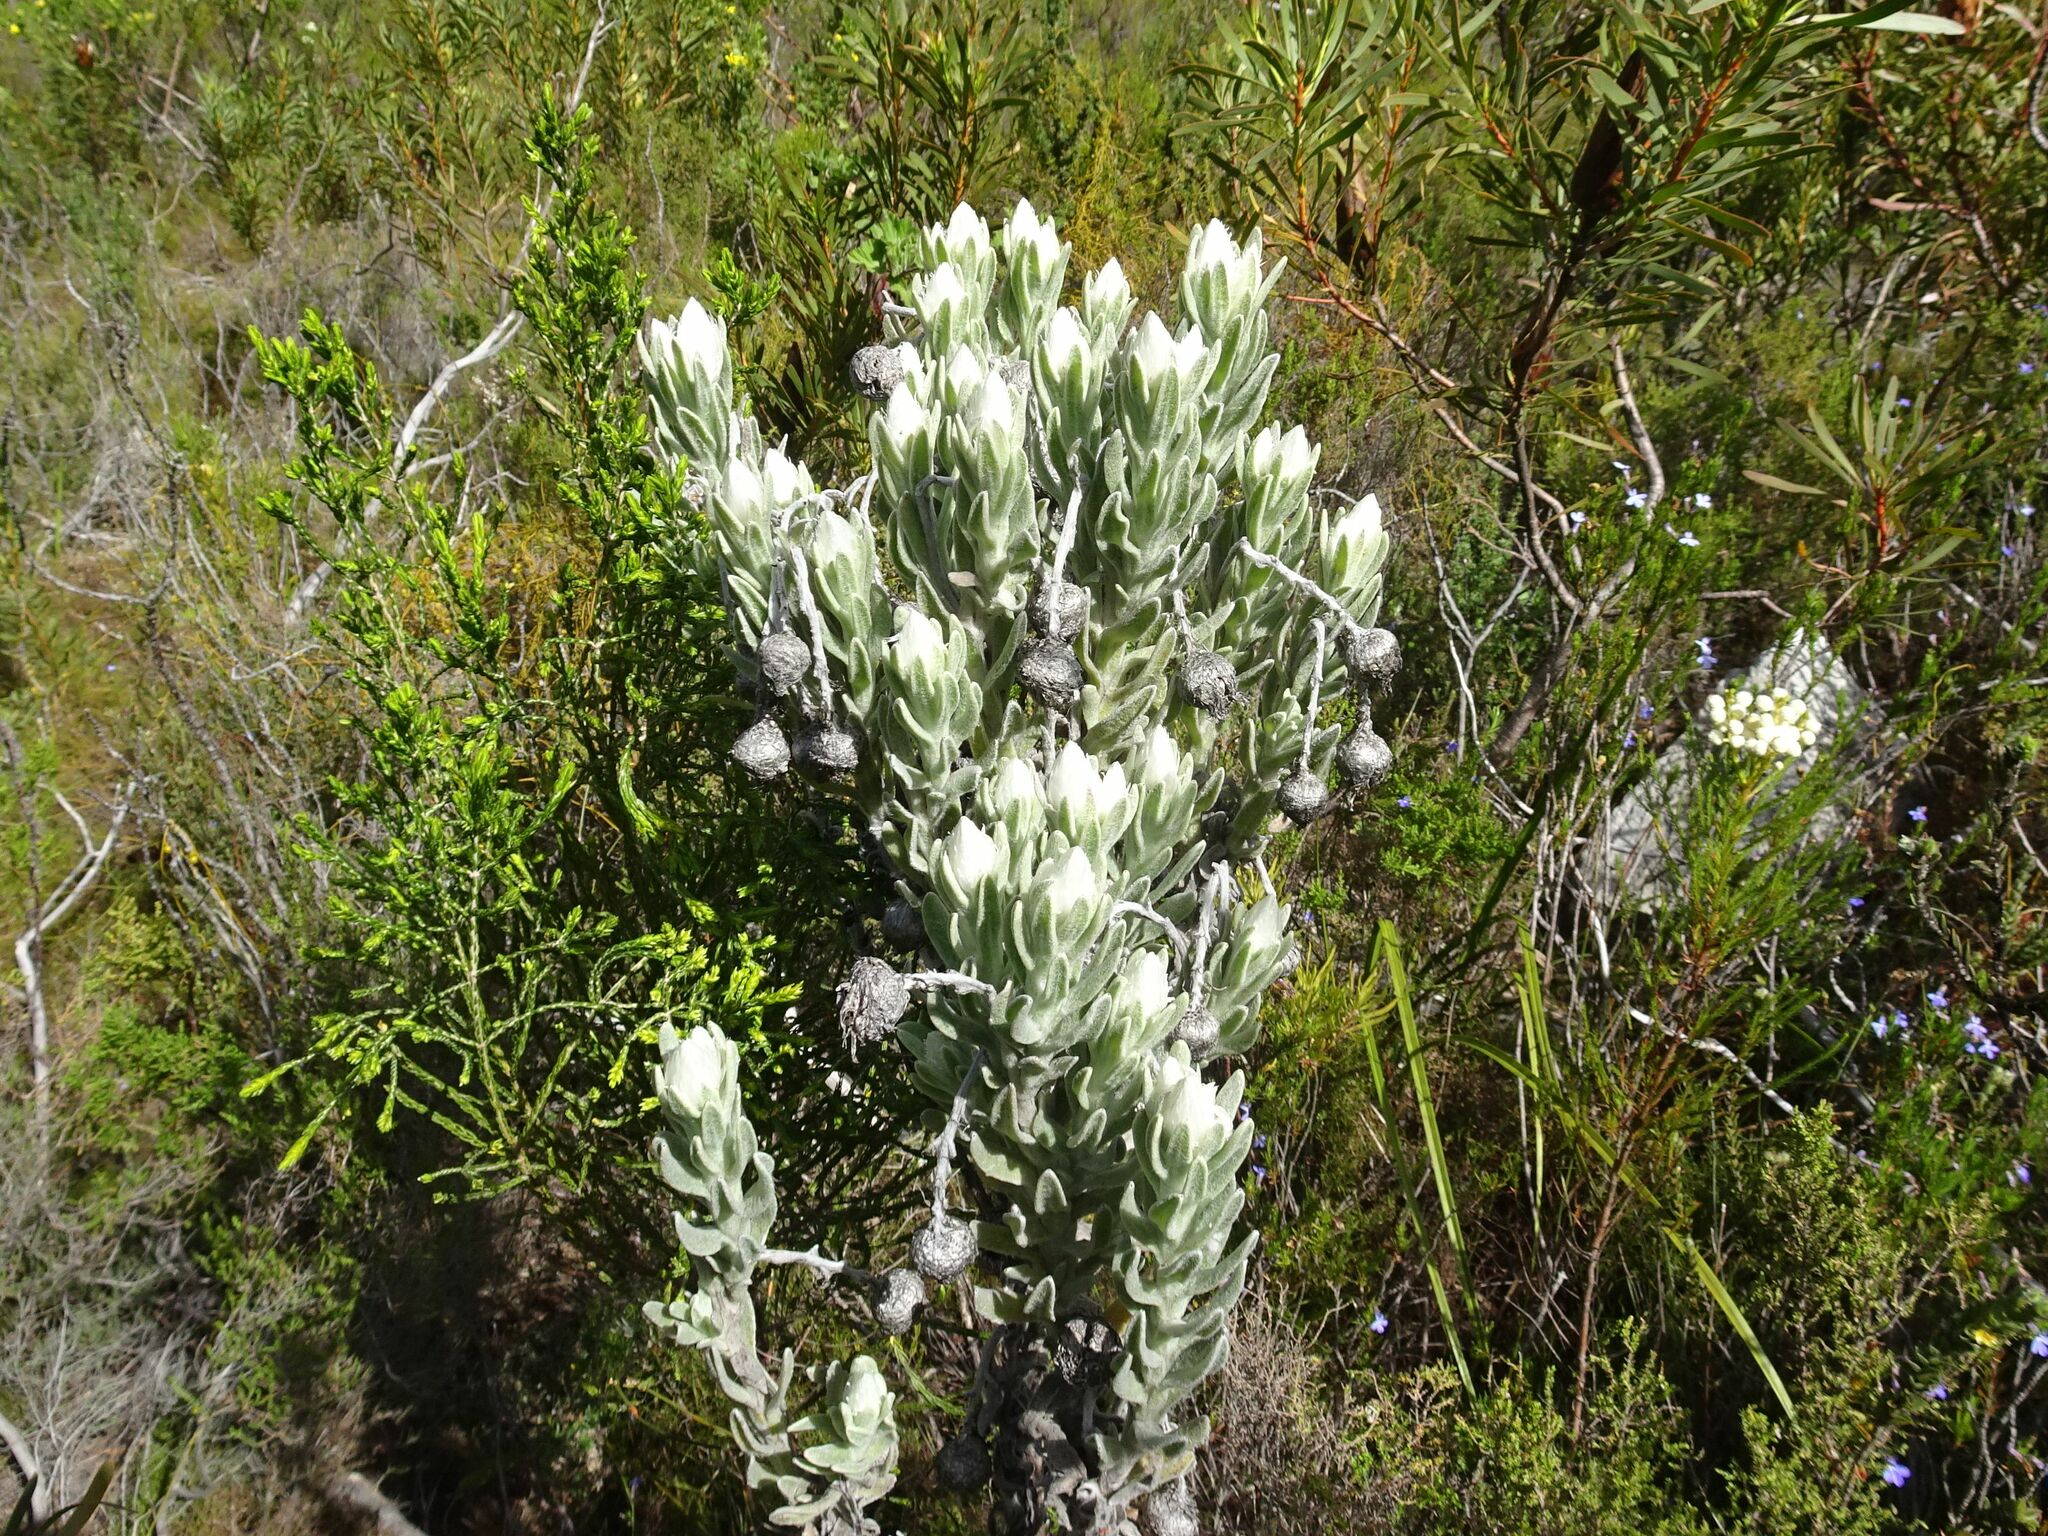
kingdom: Plantae
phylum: Tracheophyta
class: Magnoliopsida
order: Asterales
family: Asteraceae
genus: Syncarpha
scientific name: Syncarpha vestita
